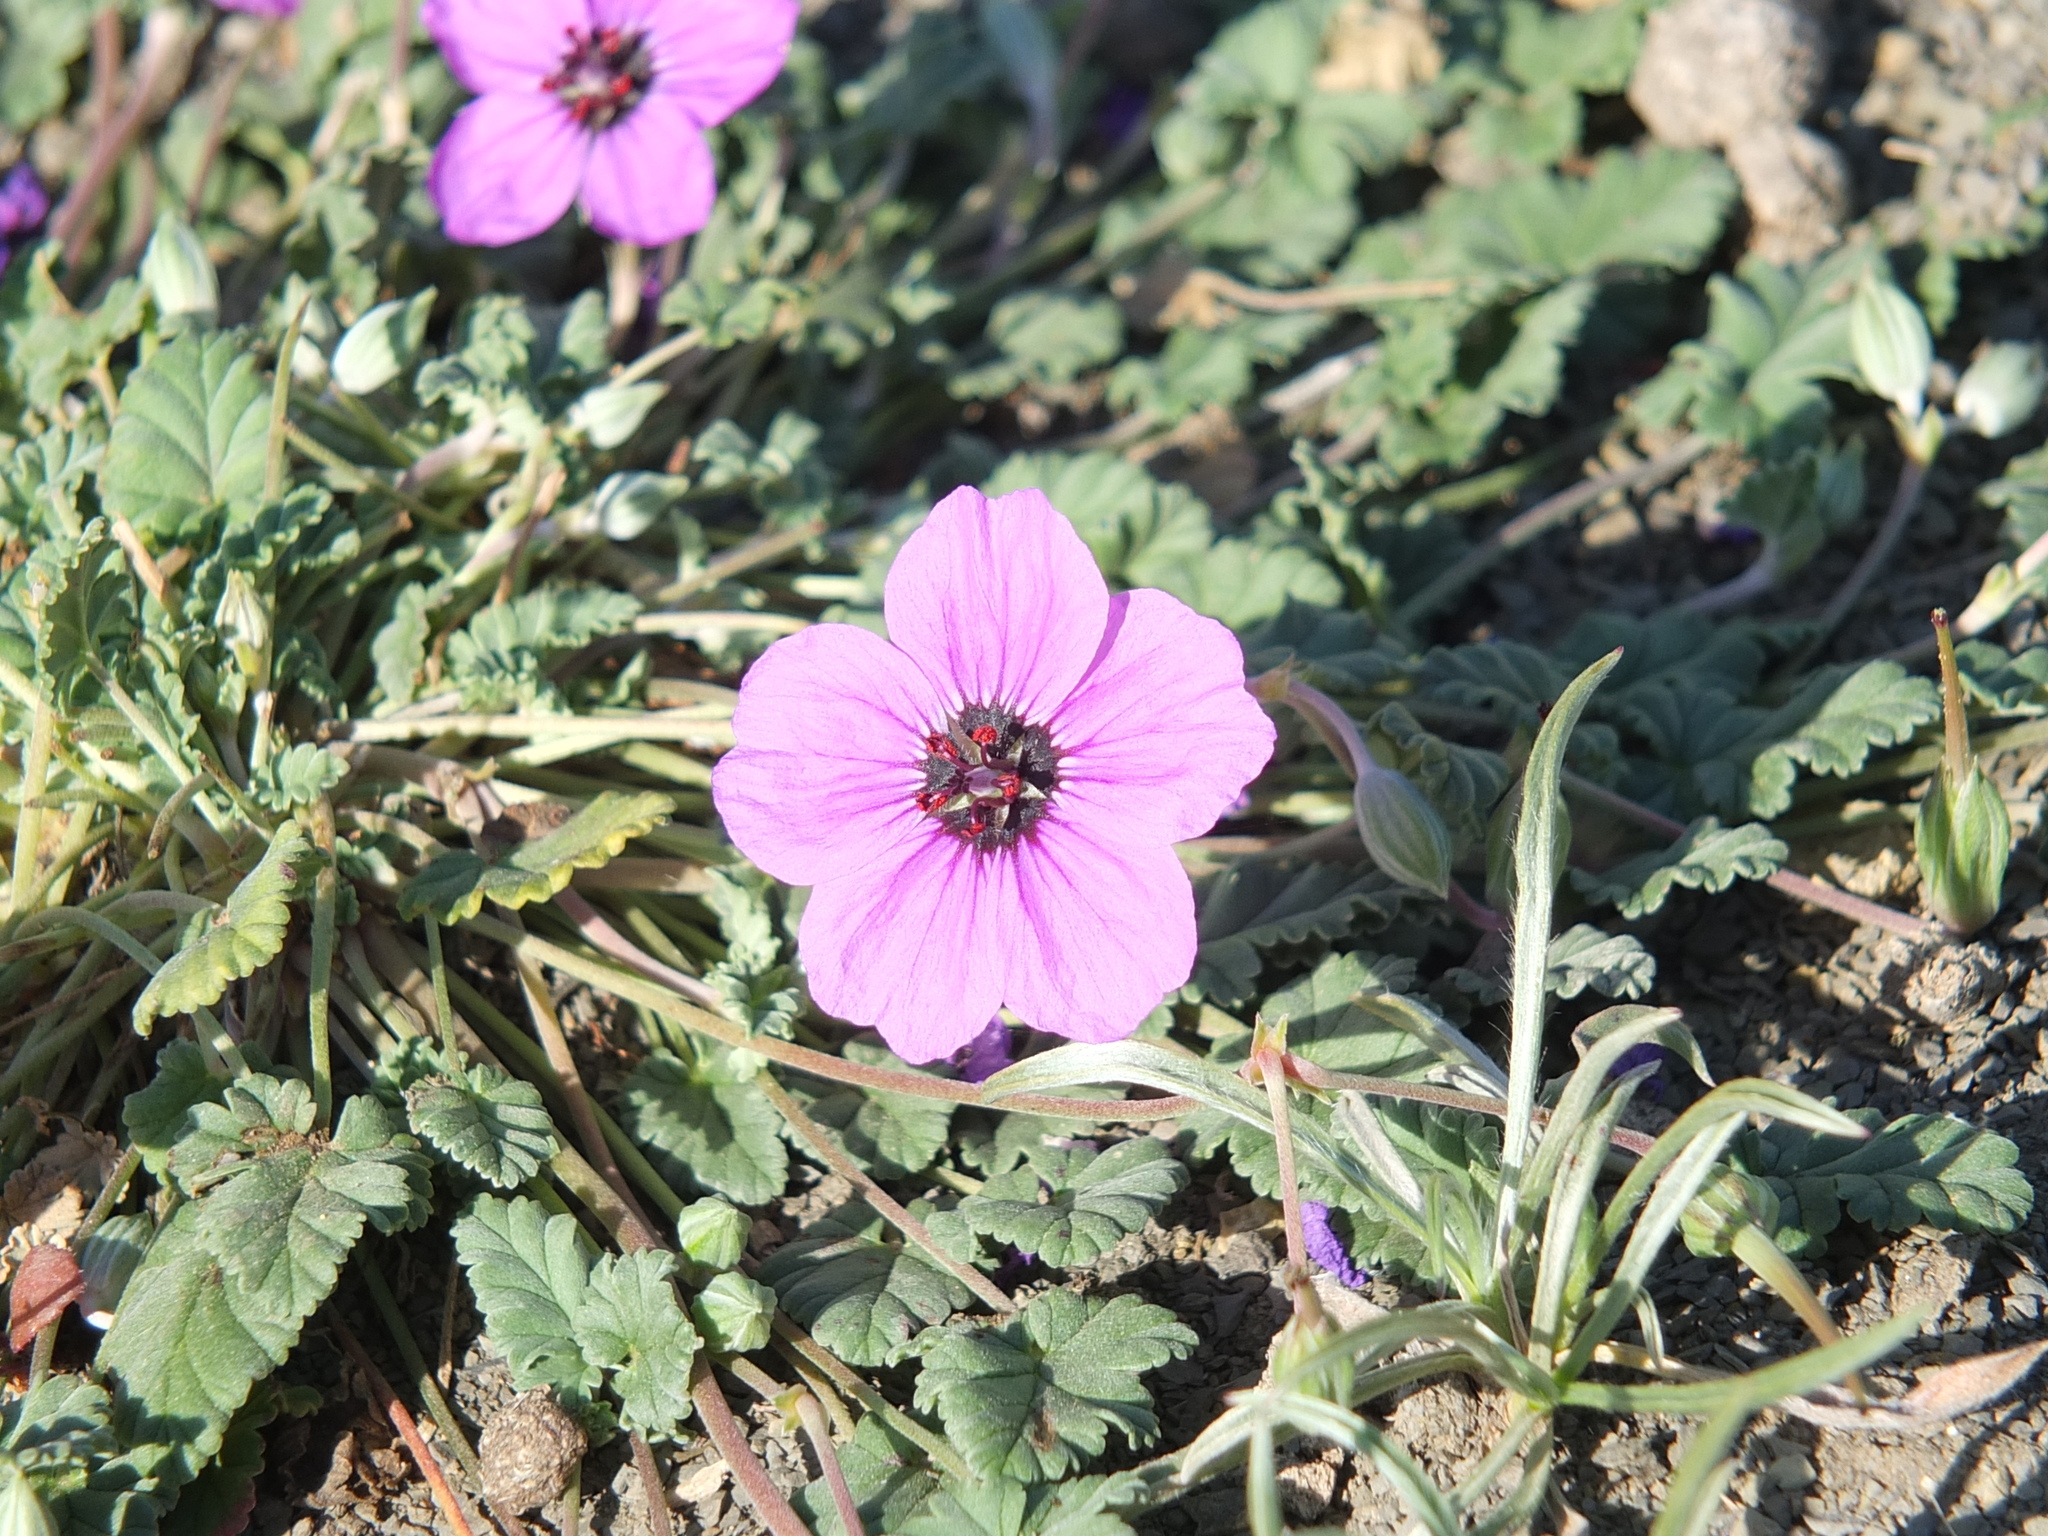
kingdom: Plantae
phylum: Tracheophyta
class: Magnoliopsida
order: Geraniales
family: Geraniaceae
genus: Erodium
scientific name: Erodium guttatum
